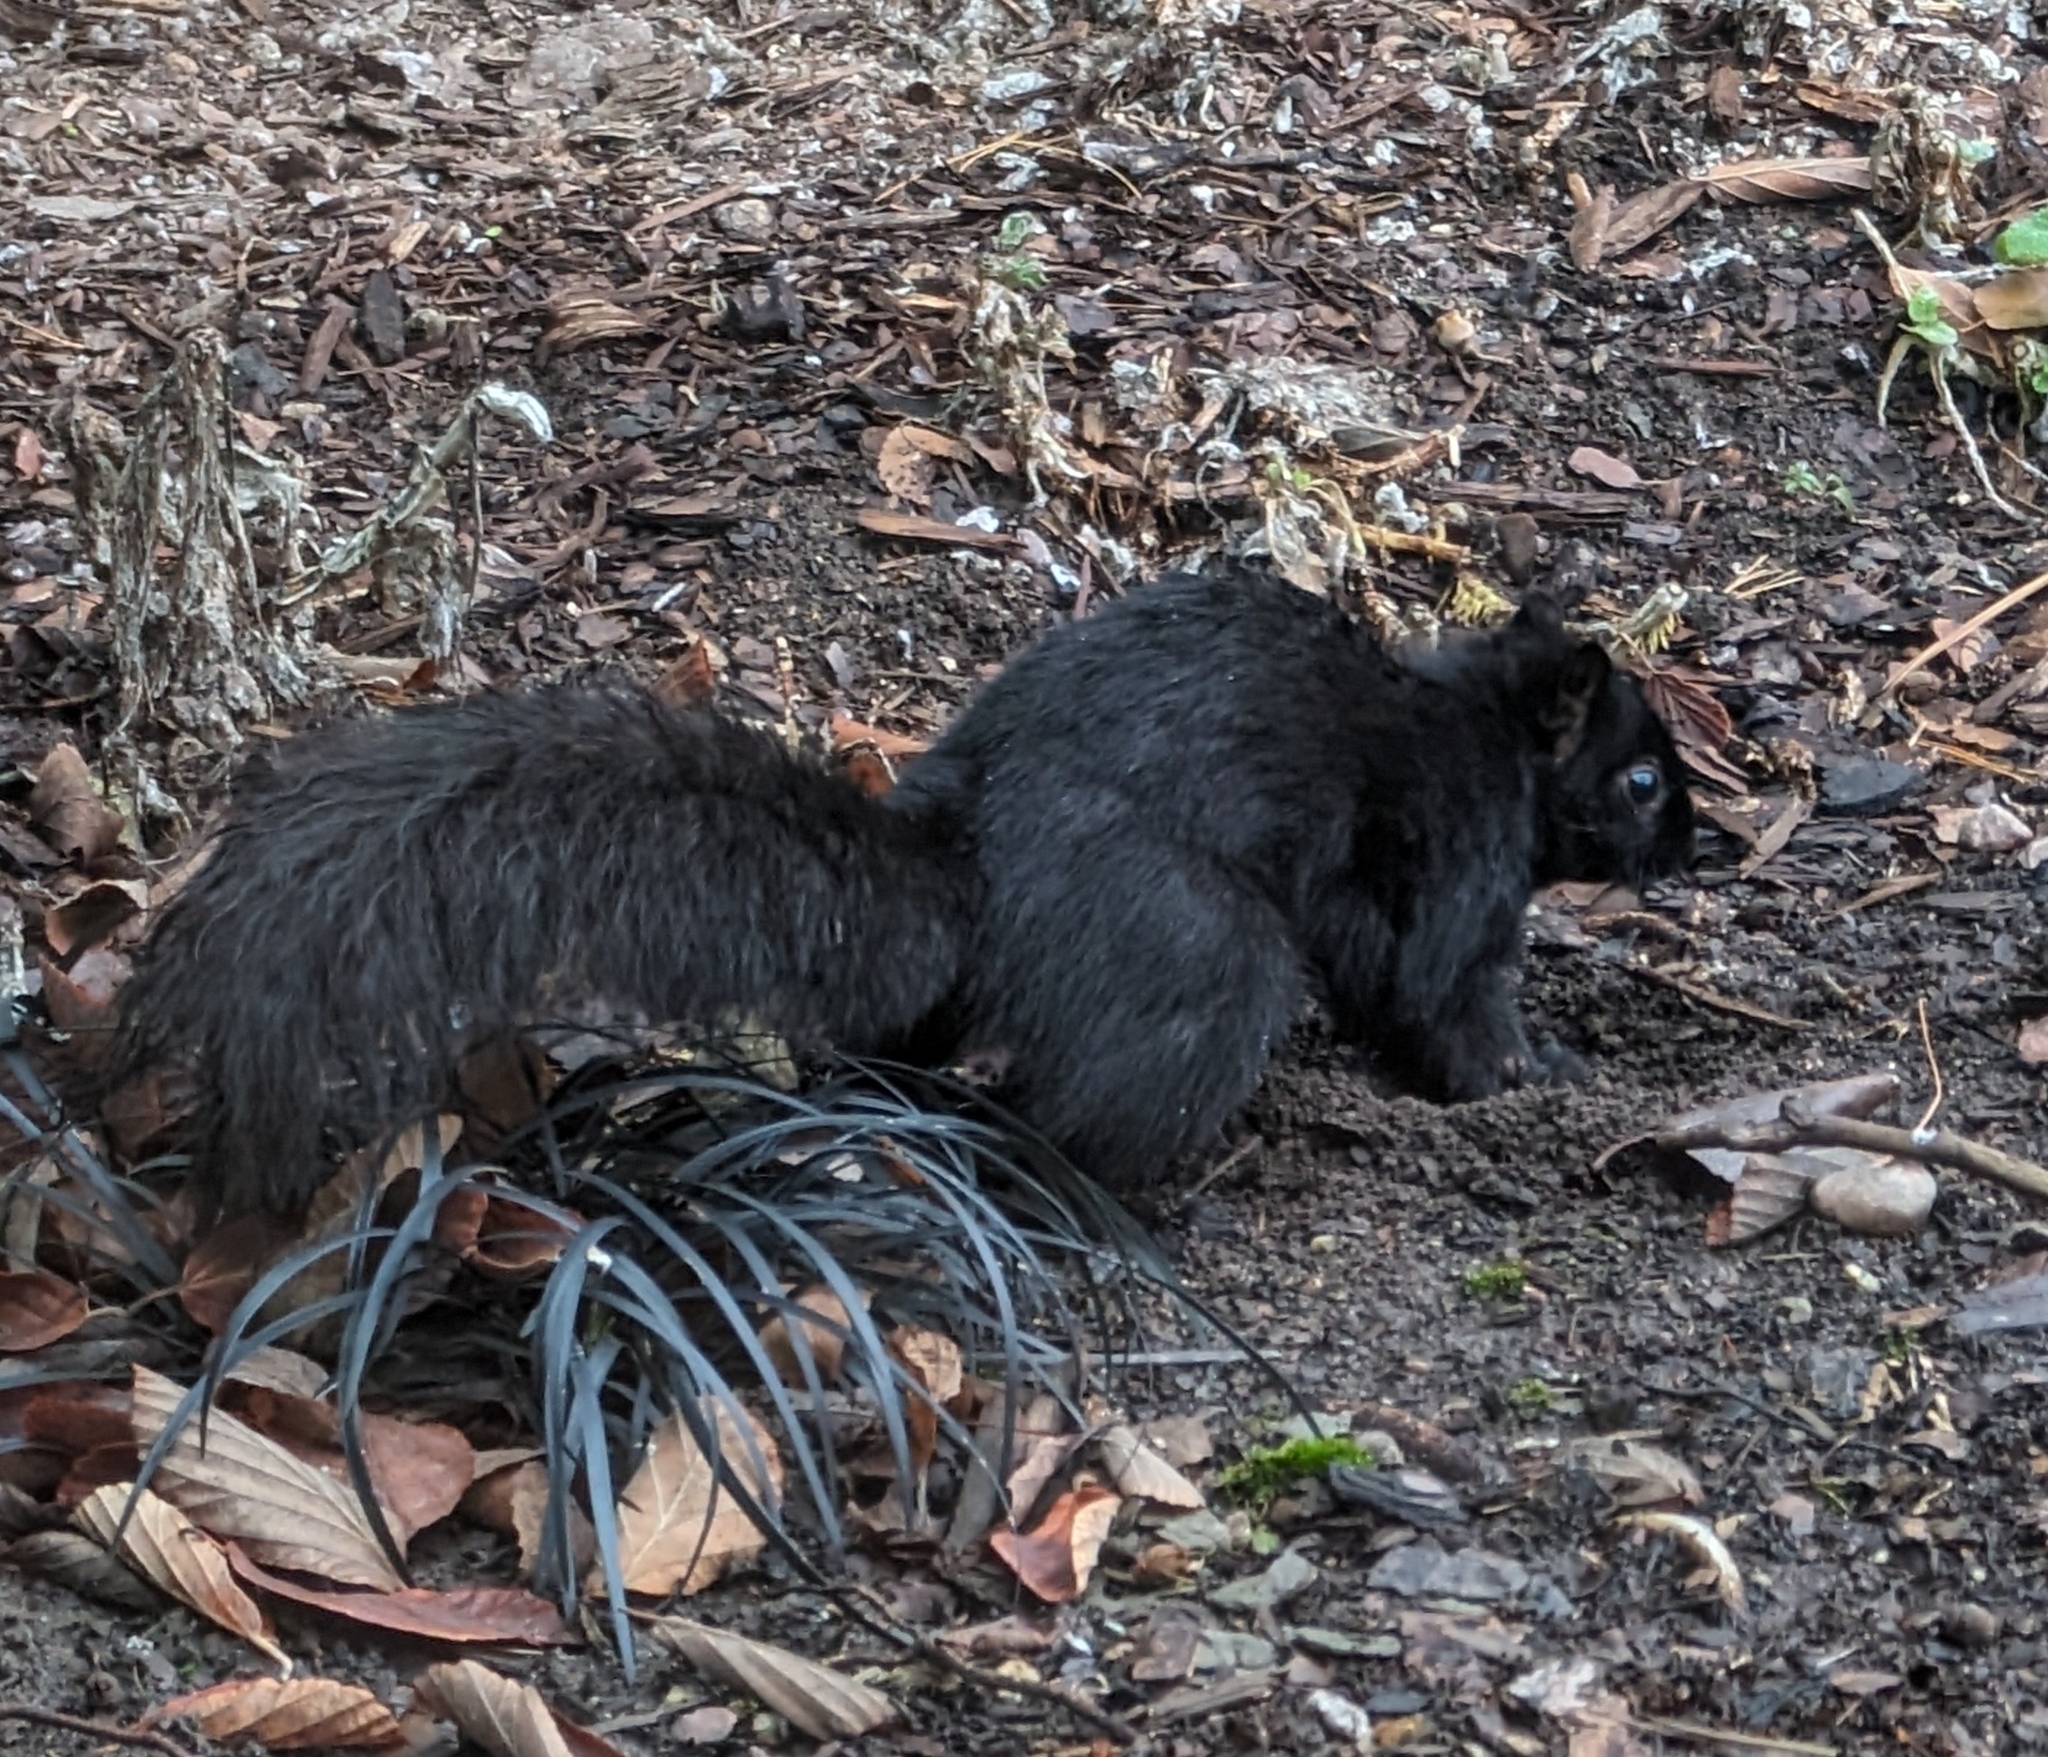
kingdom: Animalia
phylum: Chordata
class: Mammalia
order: Rodentia
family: Sciuridae
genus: Sciurus
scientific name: Sciurus carolinensis
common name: Eastern gray squirrel
